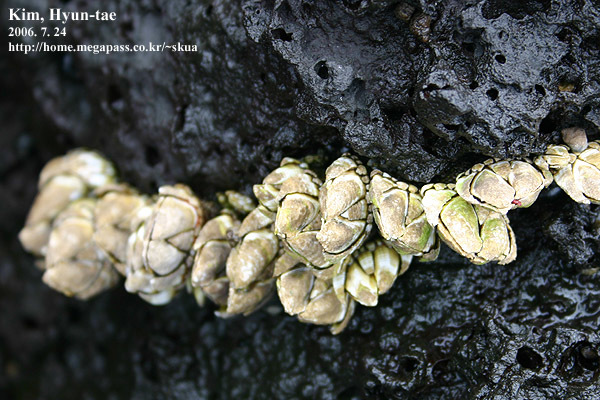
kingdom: Animalia
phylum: Arthropoda
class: Maxillopoda
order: Pedunculata
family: Pollicipedidae
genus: Capitulum
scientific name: Capitulum mitella
